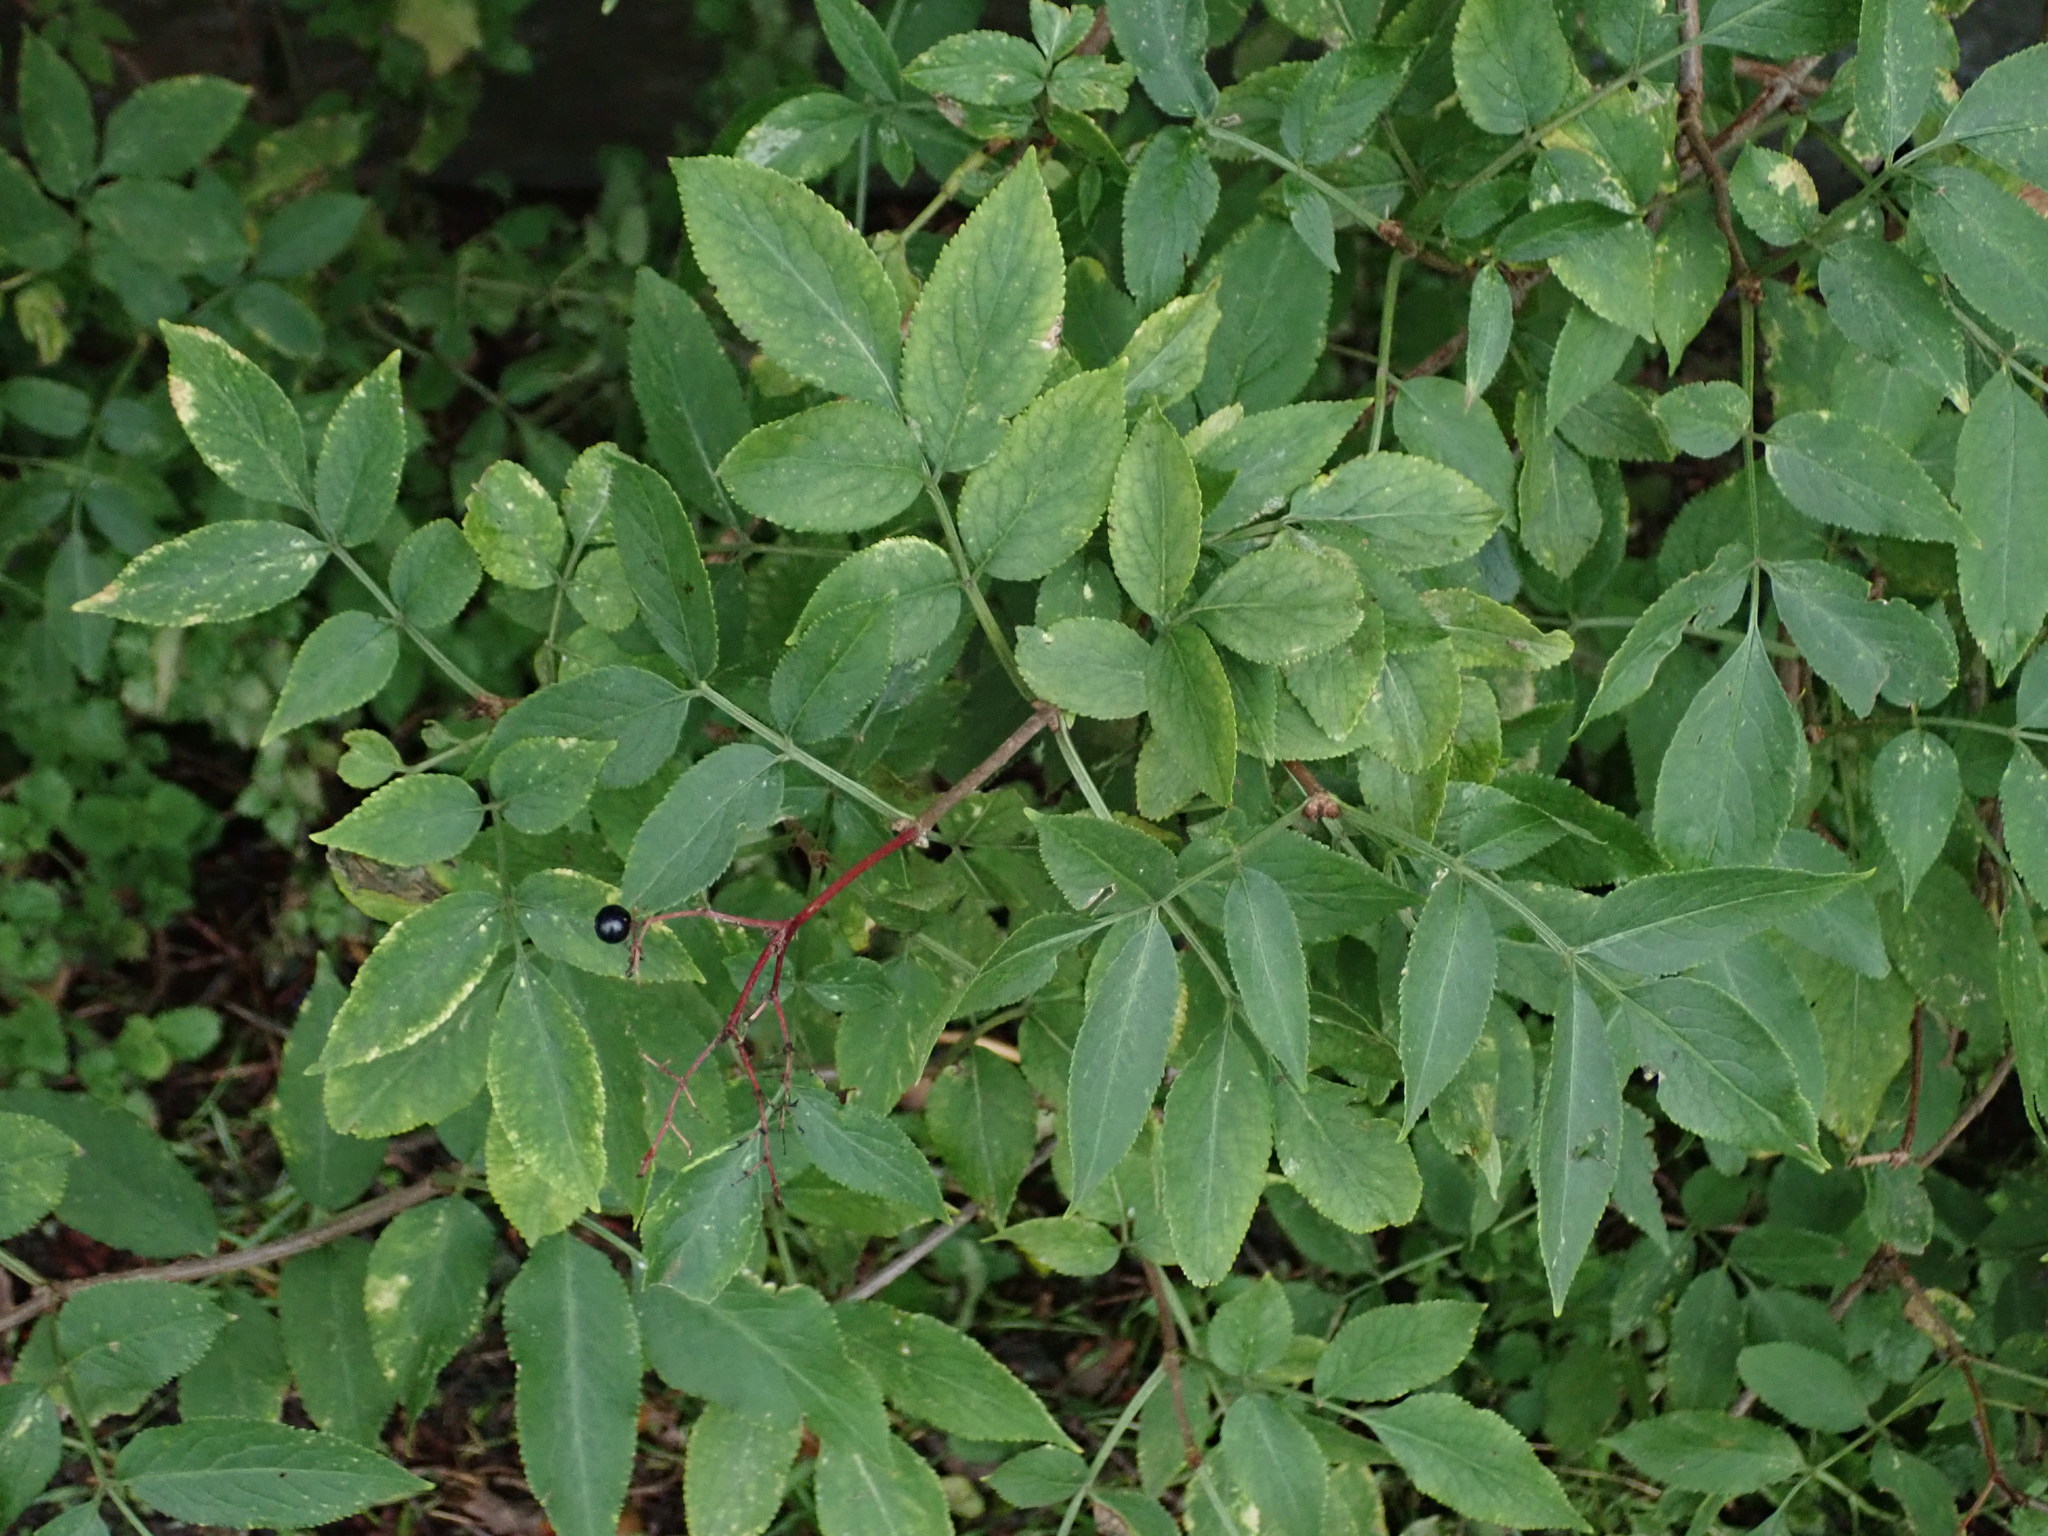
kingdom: Plantae
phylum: Tracheophyta
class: Magnoliopsida
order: Dipsacales
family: Viburnaceae
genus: Sambucus
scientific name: Sambucus nigra
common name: Elder
